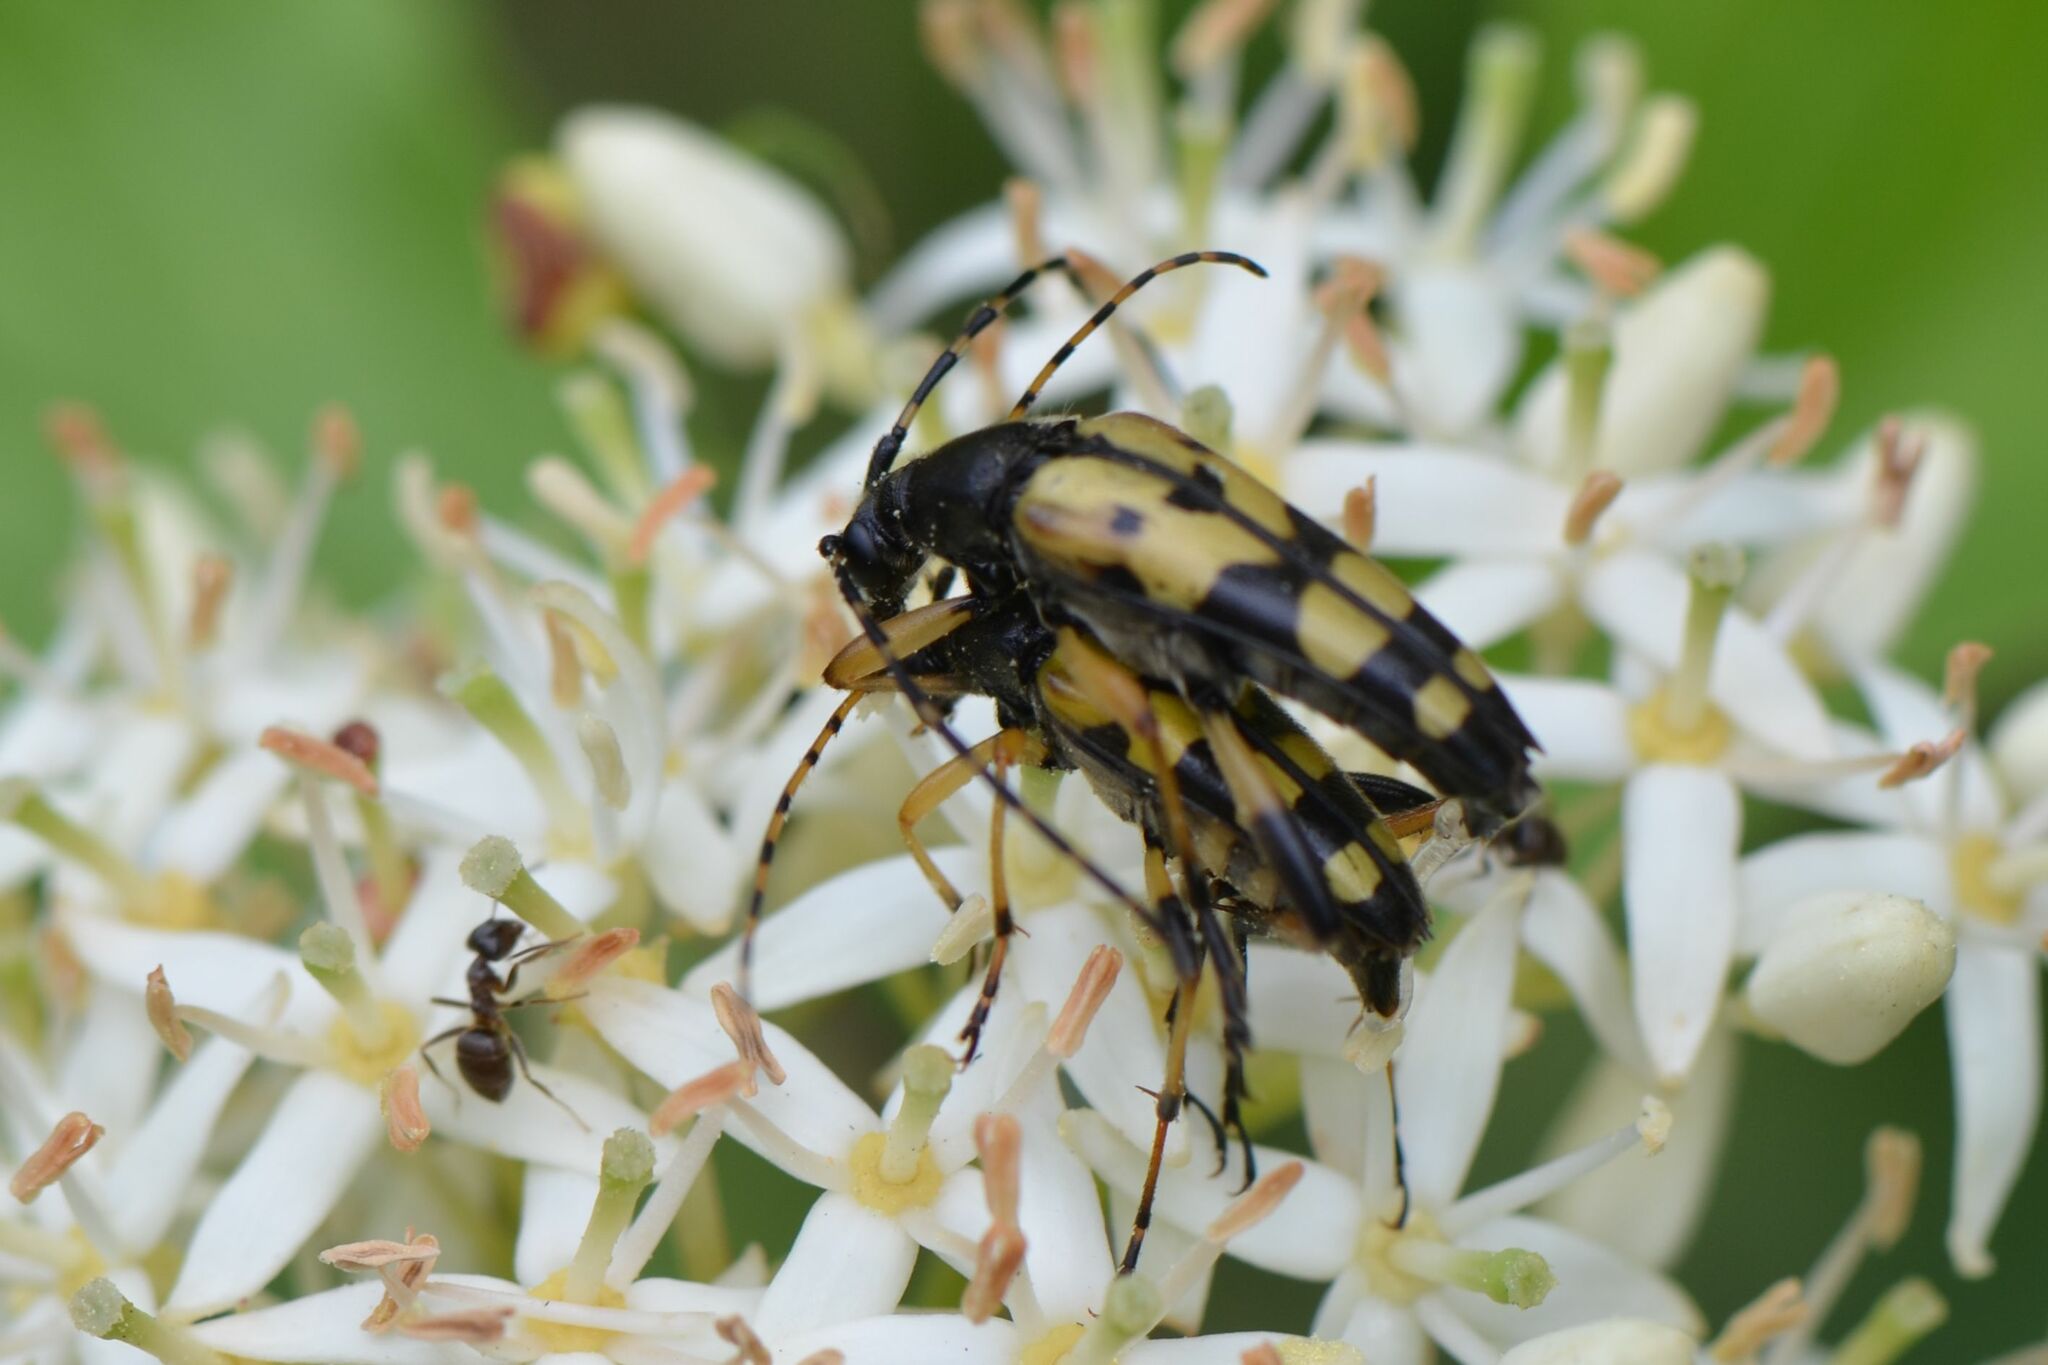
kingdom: Animalia
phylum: Arthropoda
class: Insecta
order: Coleoptera
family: Cerambycidae
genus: Rutpela
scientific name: Rutpela maculata
